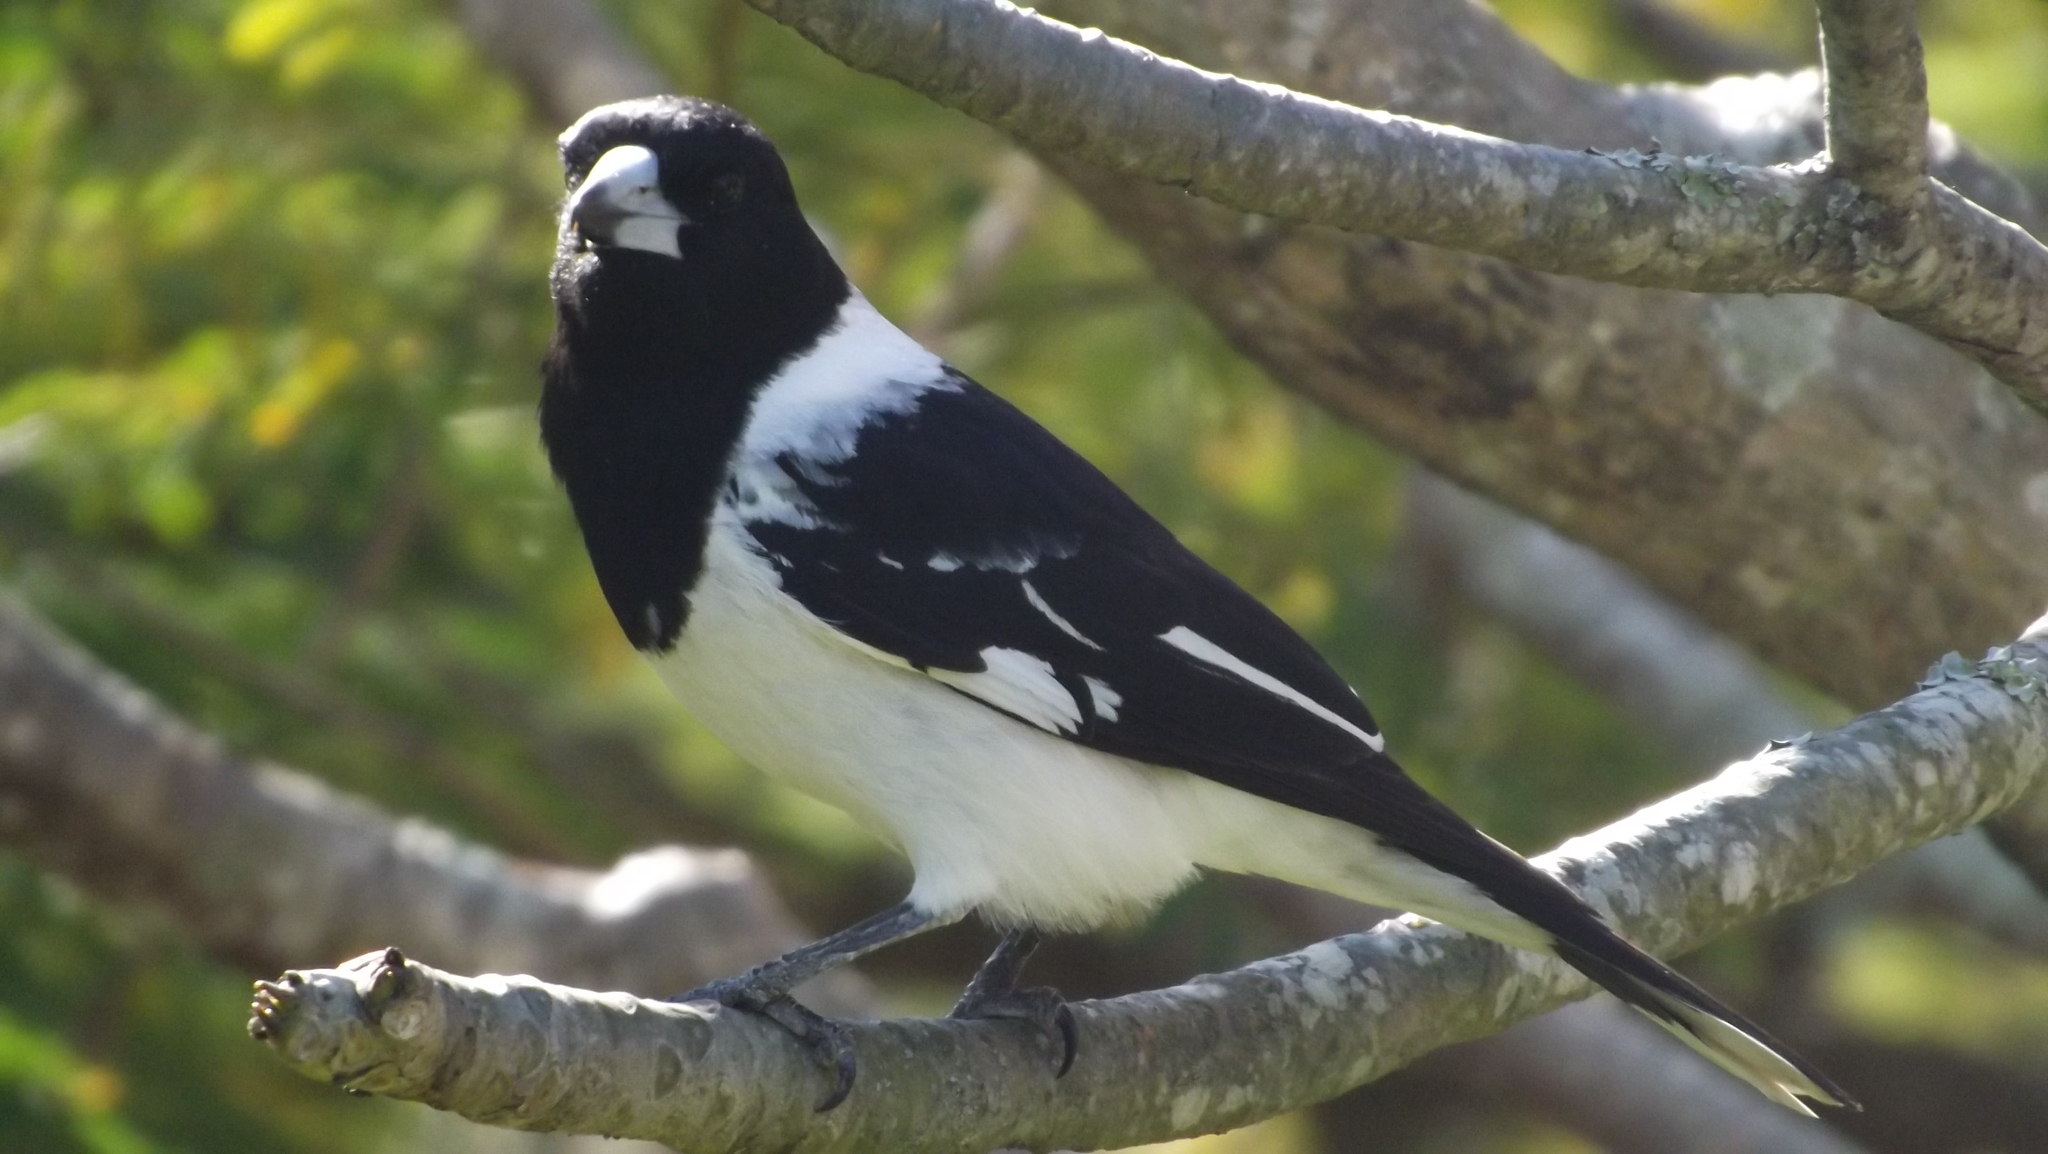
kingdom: Animalia
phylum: Chordata
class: Aves
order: Passeriformes
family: Cracticidae
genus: Cracticus
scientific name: Cracticus nigrogularis
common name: Pied butcherbird
